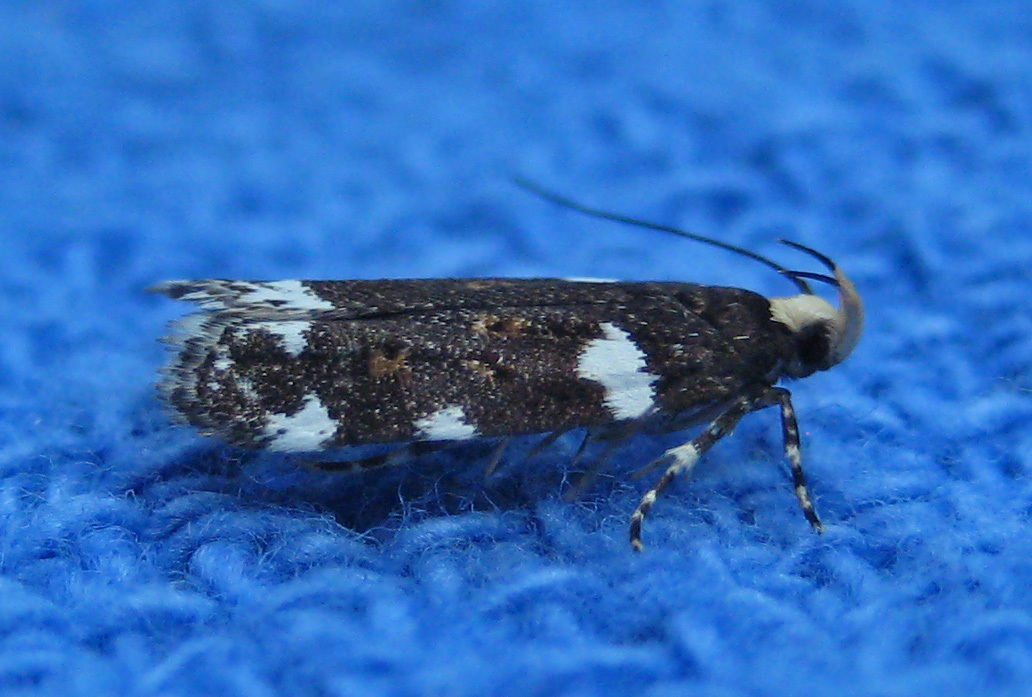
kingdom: Animalia
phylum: Arthropoda
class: Insecta
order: Lepidoptera
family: Gelechiidae
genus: Fascista
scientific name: Fascista cercerisella
